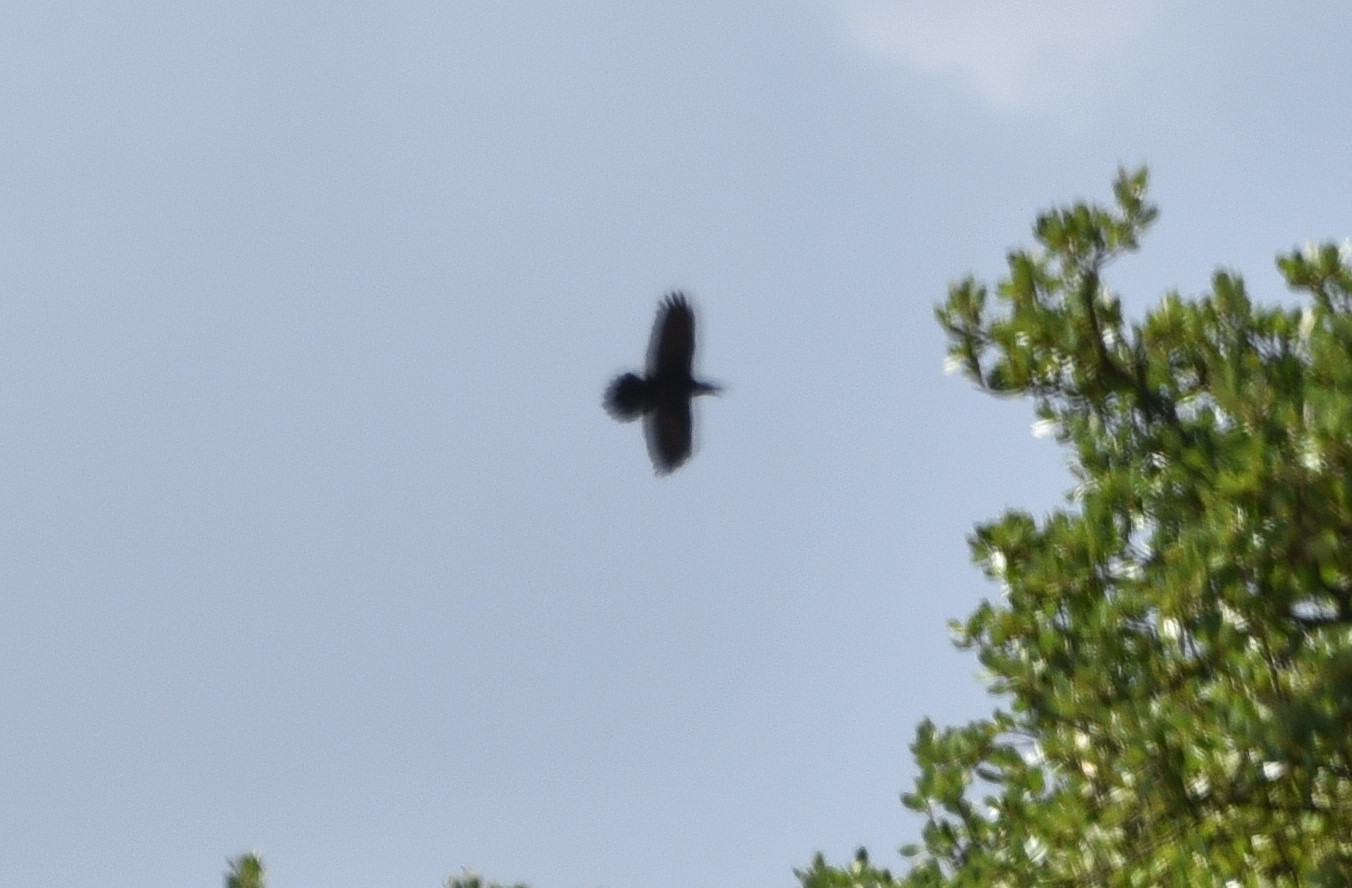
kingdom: Animalia
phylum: Chordata
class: Aves
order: Passeriformes
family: Corvidae
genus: Corvus
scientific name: Corvus corax
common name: Common raven
